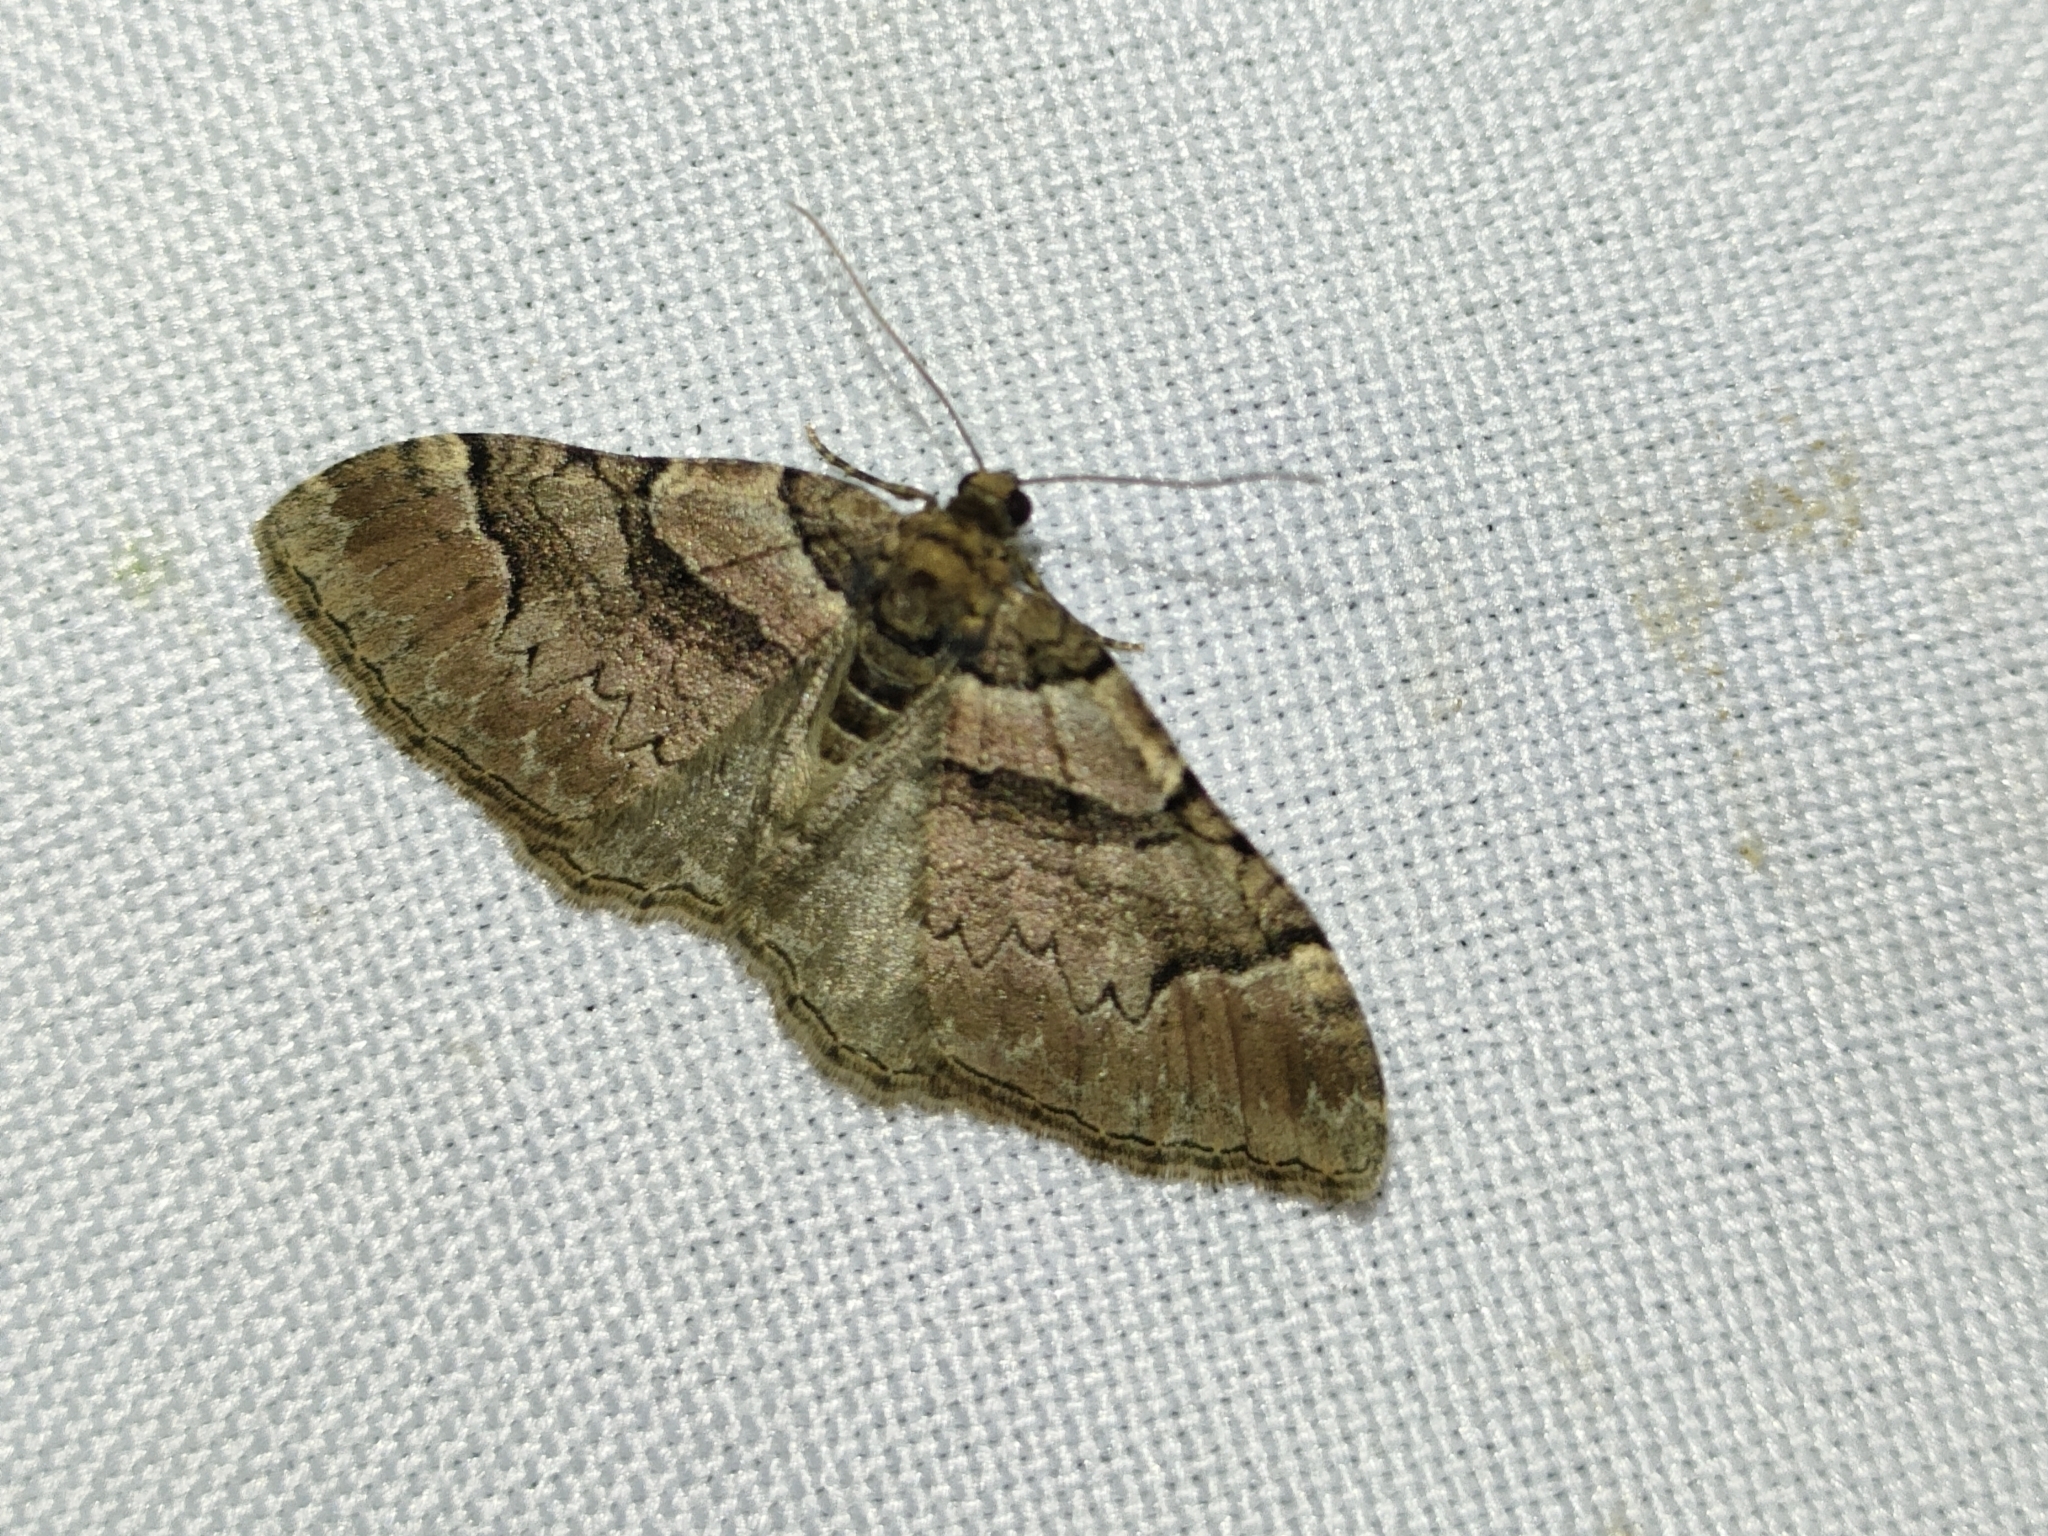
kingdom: Animalia
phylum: Arthropoda
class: Insecta
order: Lepidoptera
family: Geometridae
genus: Catarhoe
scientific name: Catarhoe rubidata
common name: Ruddy carpet
